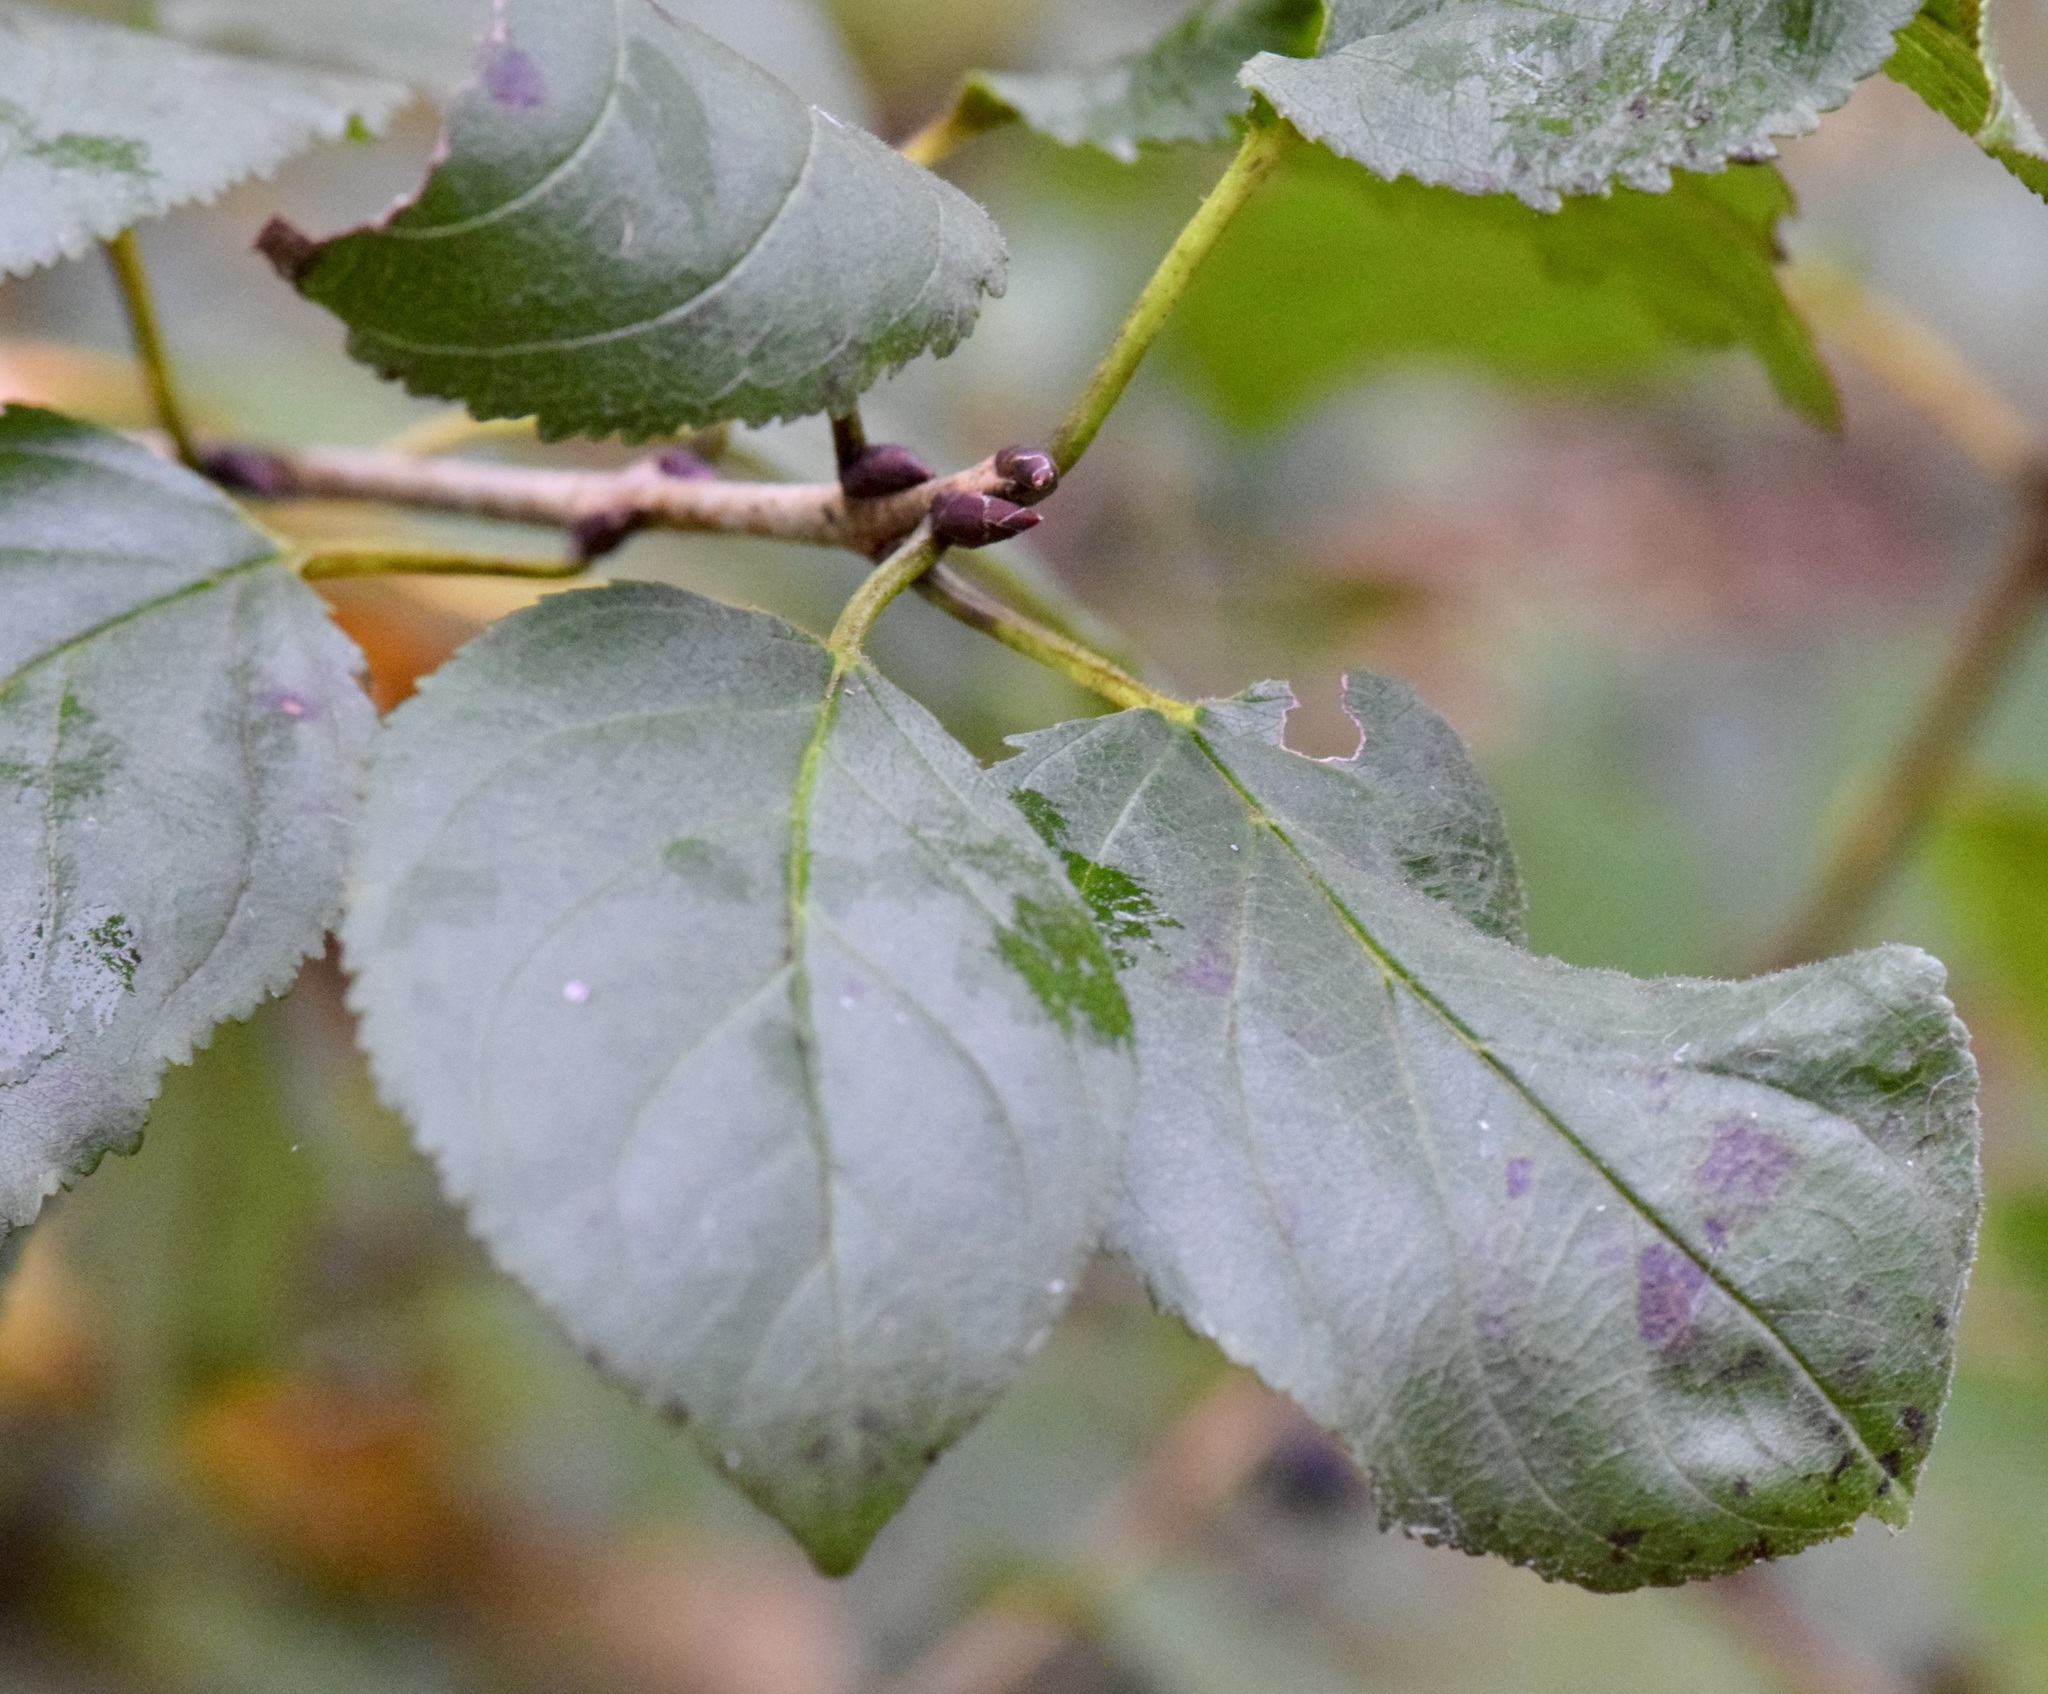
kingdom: Plantae
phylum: Tracheophyta
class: Magnoliopsida
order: Rosales
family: Rhamnaceae
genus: Rhamnus
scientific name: Rhamnus cathartica
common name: Common buckthorn
